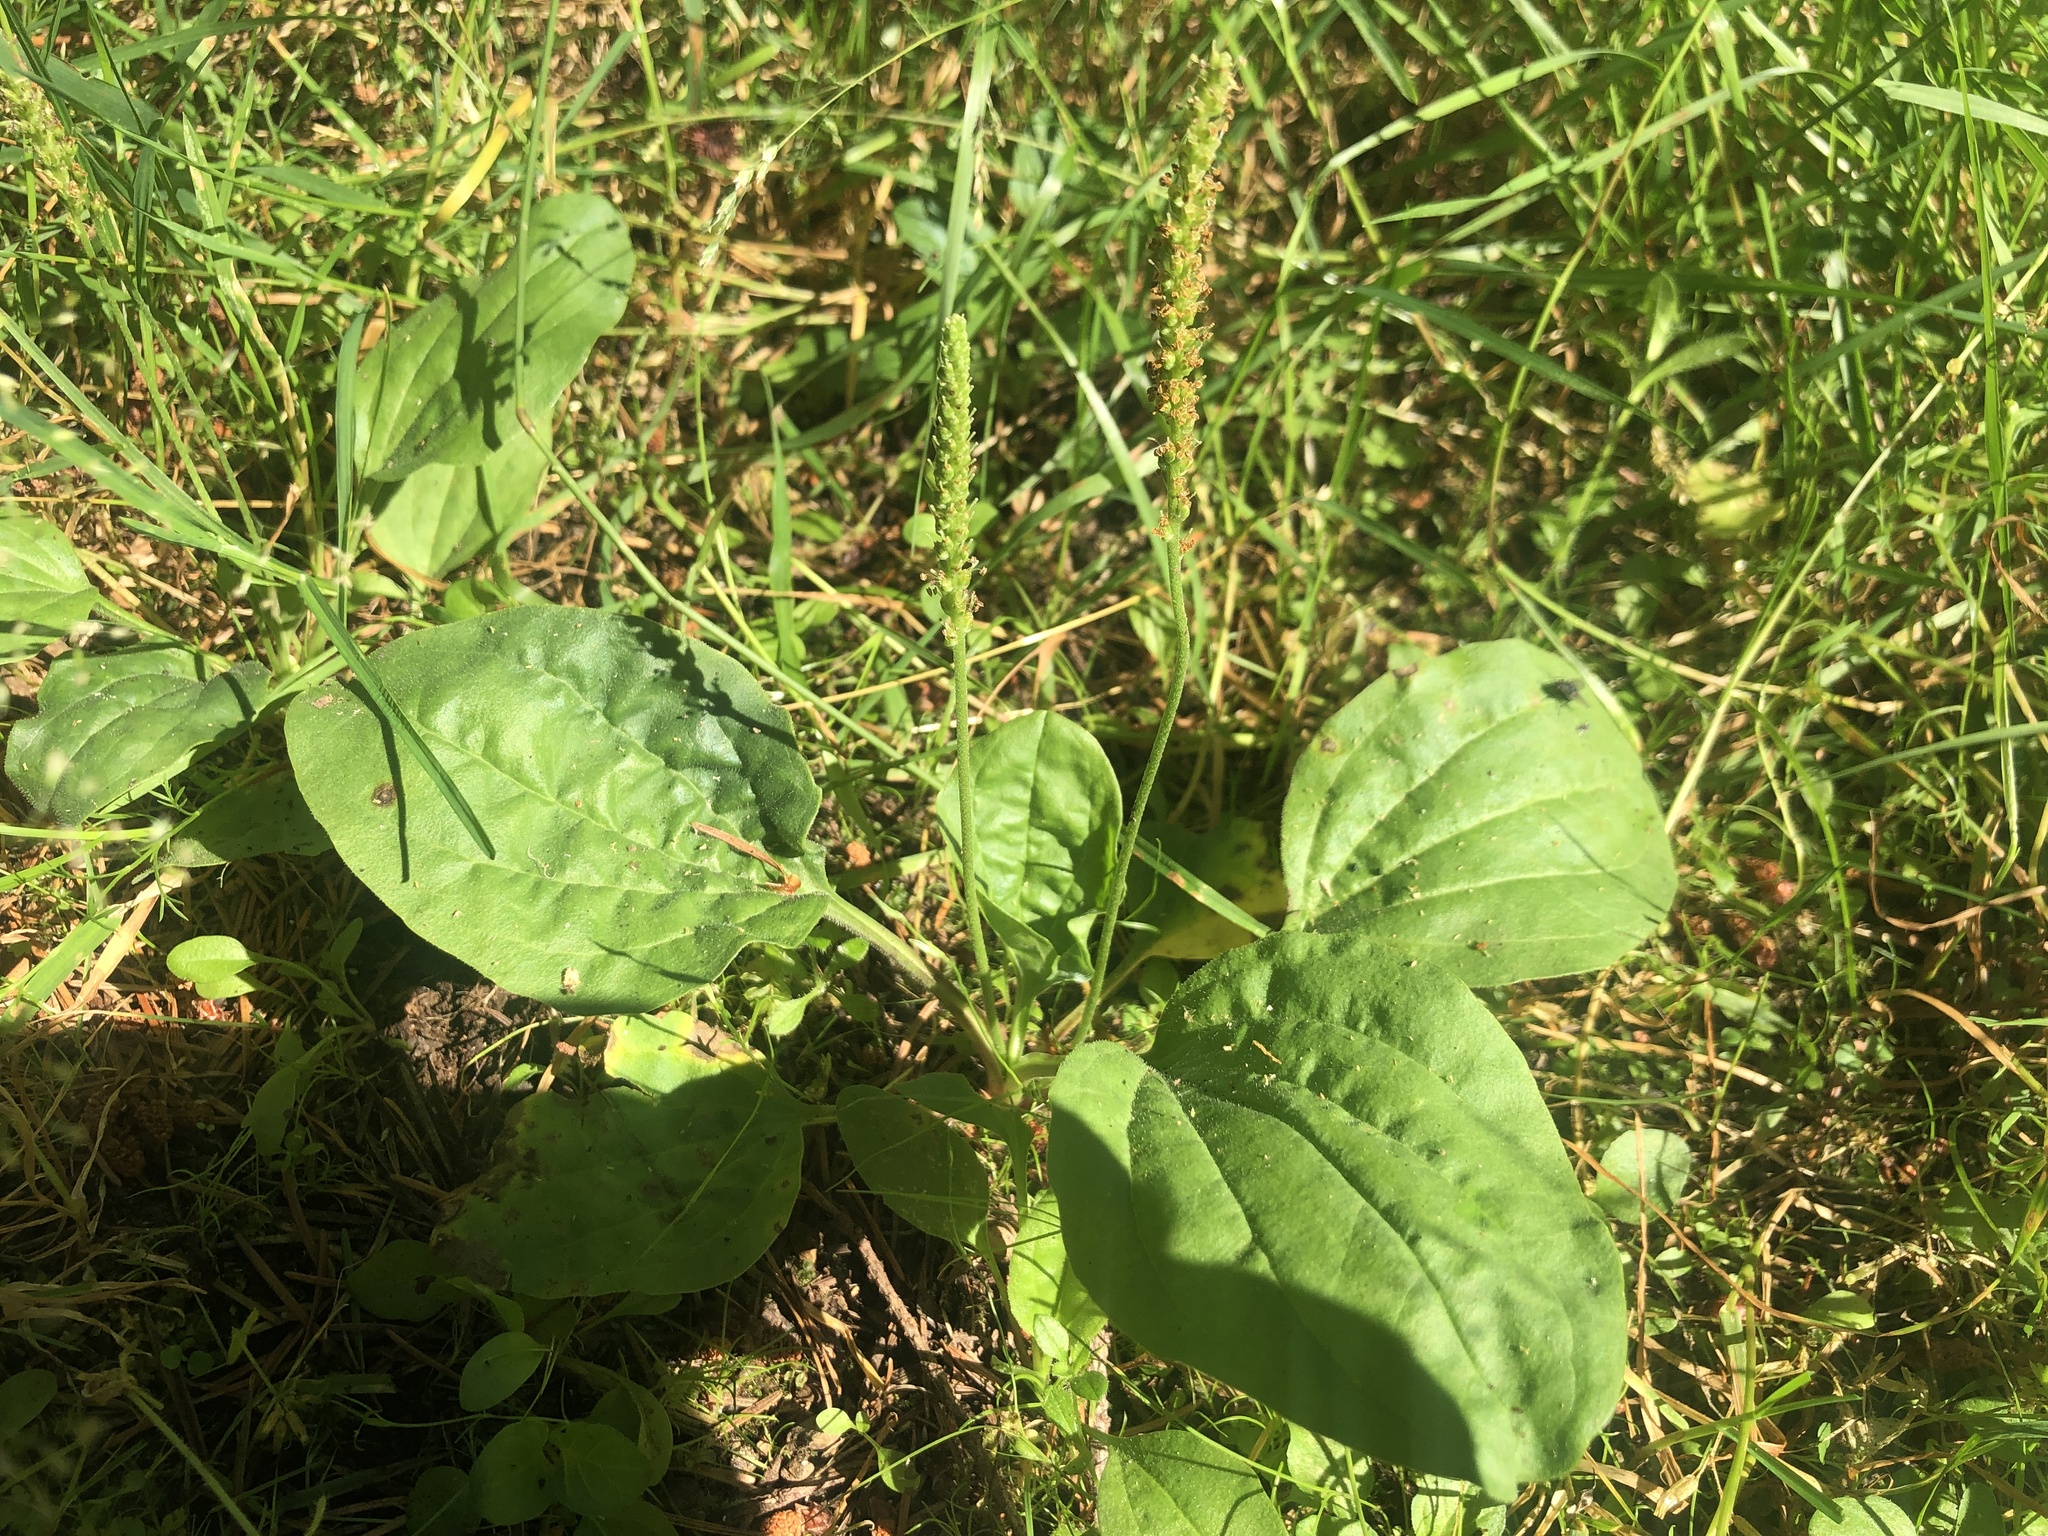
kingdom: Plantae
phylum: Tracheophyta
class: Magnoliopsida
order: Lamiales
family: Plantaginaceae
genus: Plantago
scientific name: Plantago major
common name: Common plantain
